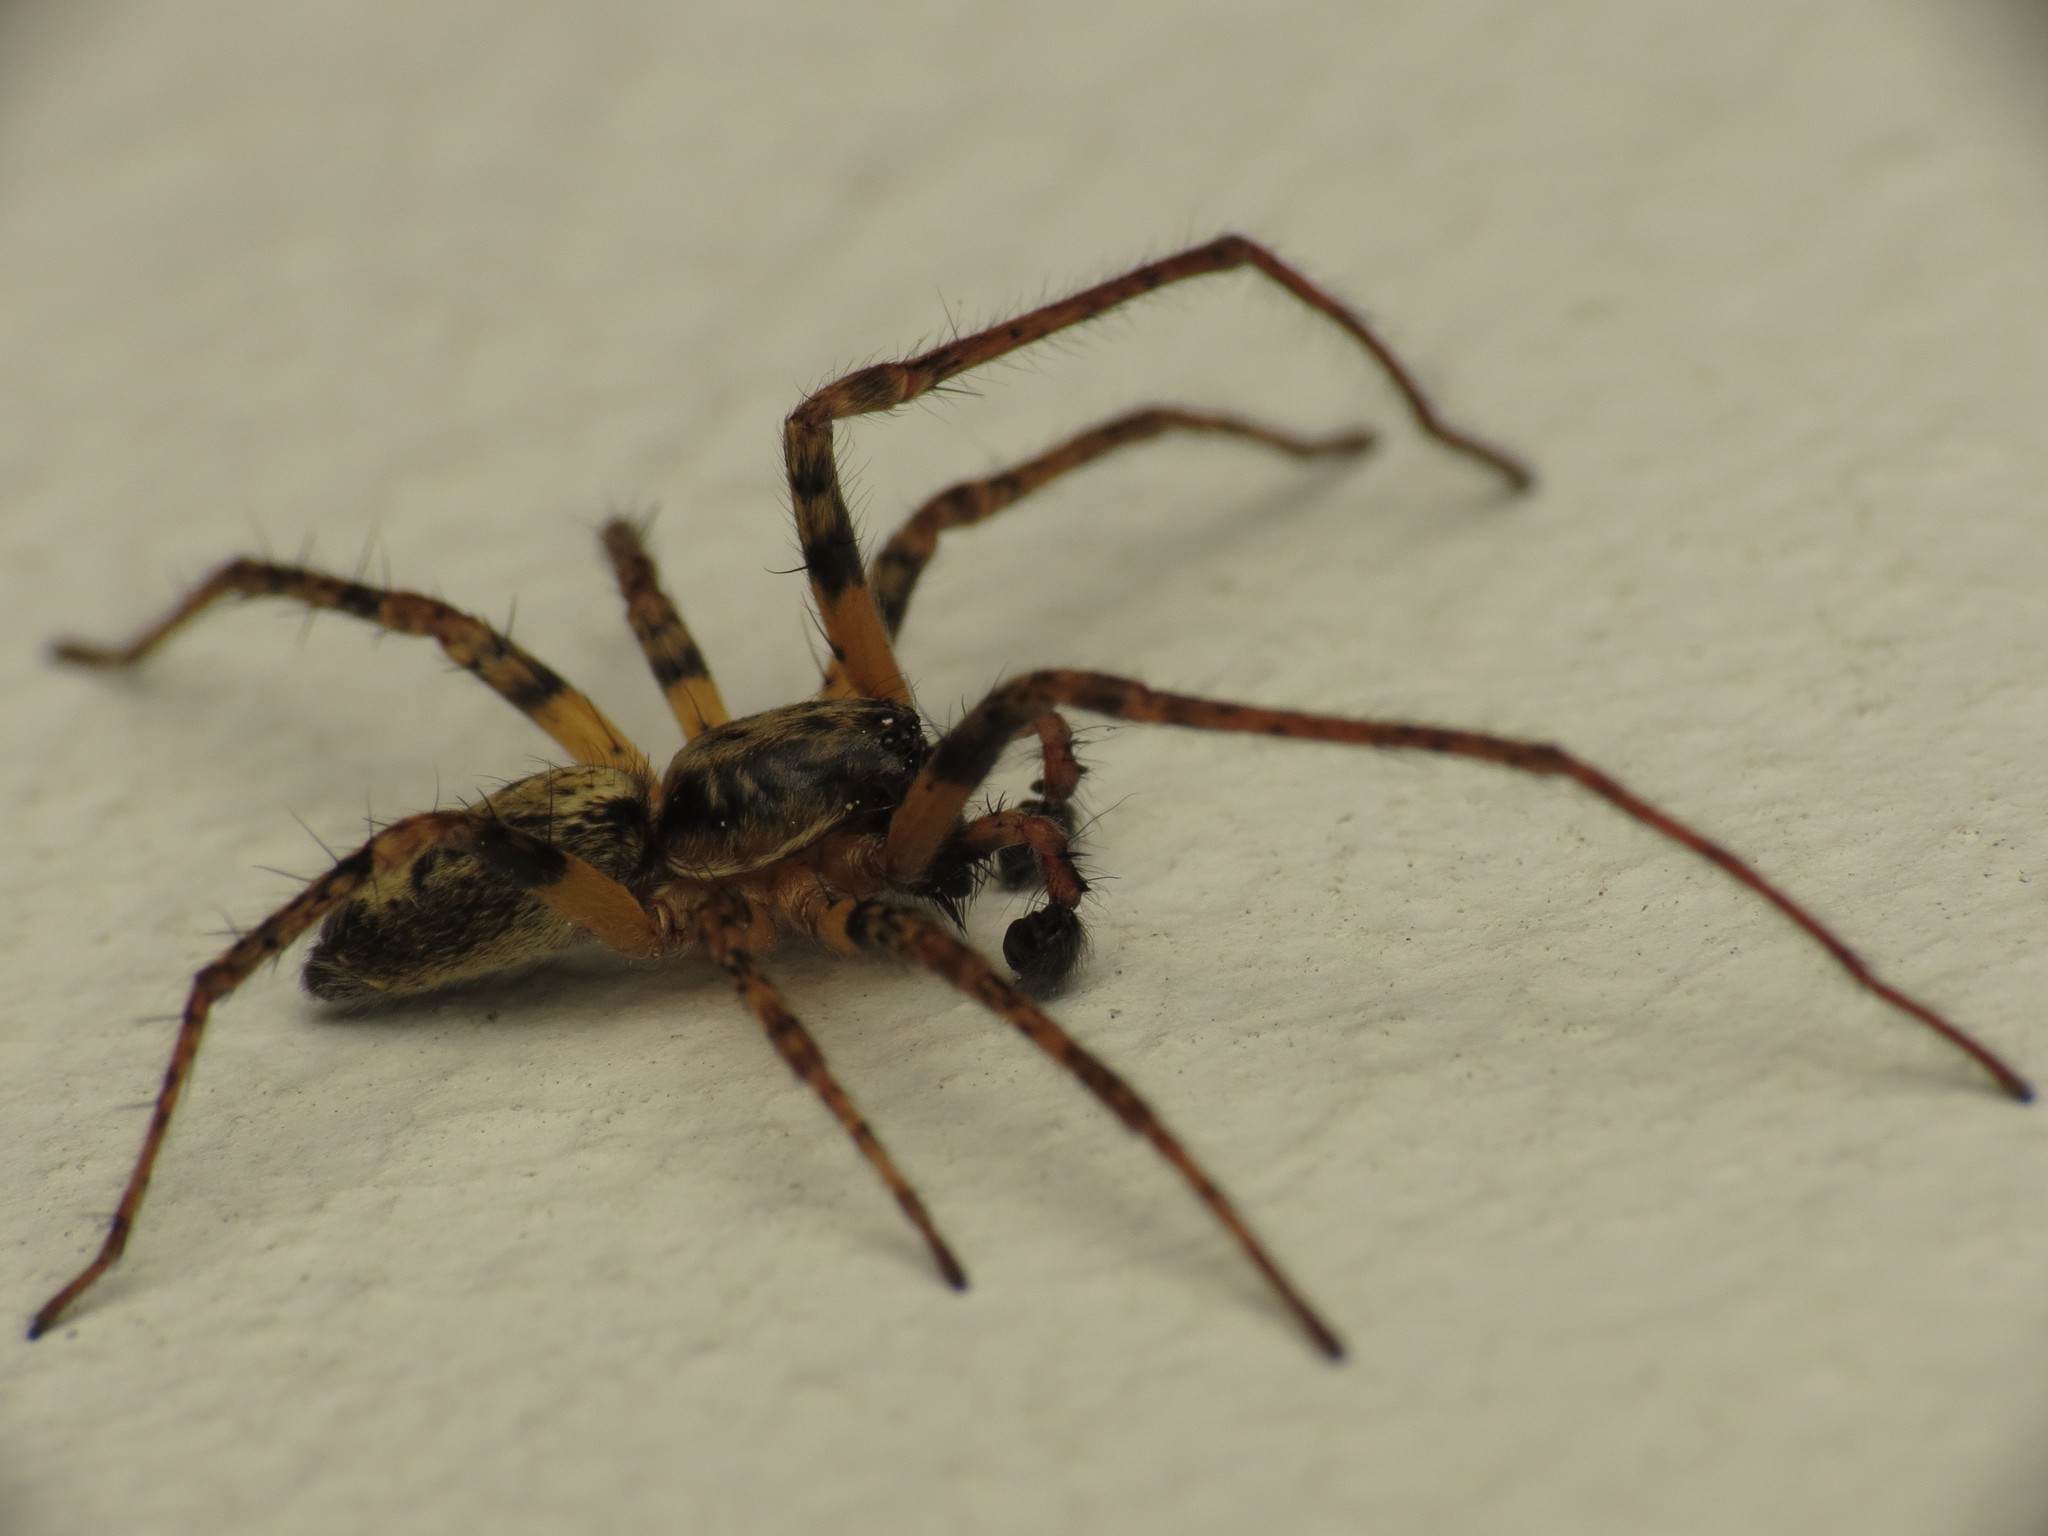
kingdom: Animalia
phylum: Arthropoda
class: Arachnida
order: Araneae
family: Anyphaenidae
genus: Anyphaena
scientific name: Anyphaena accentuata
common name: Buzzing spider
